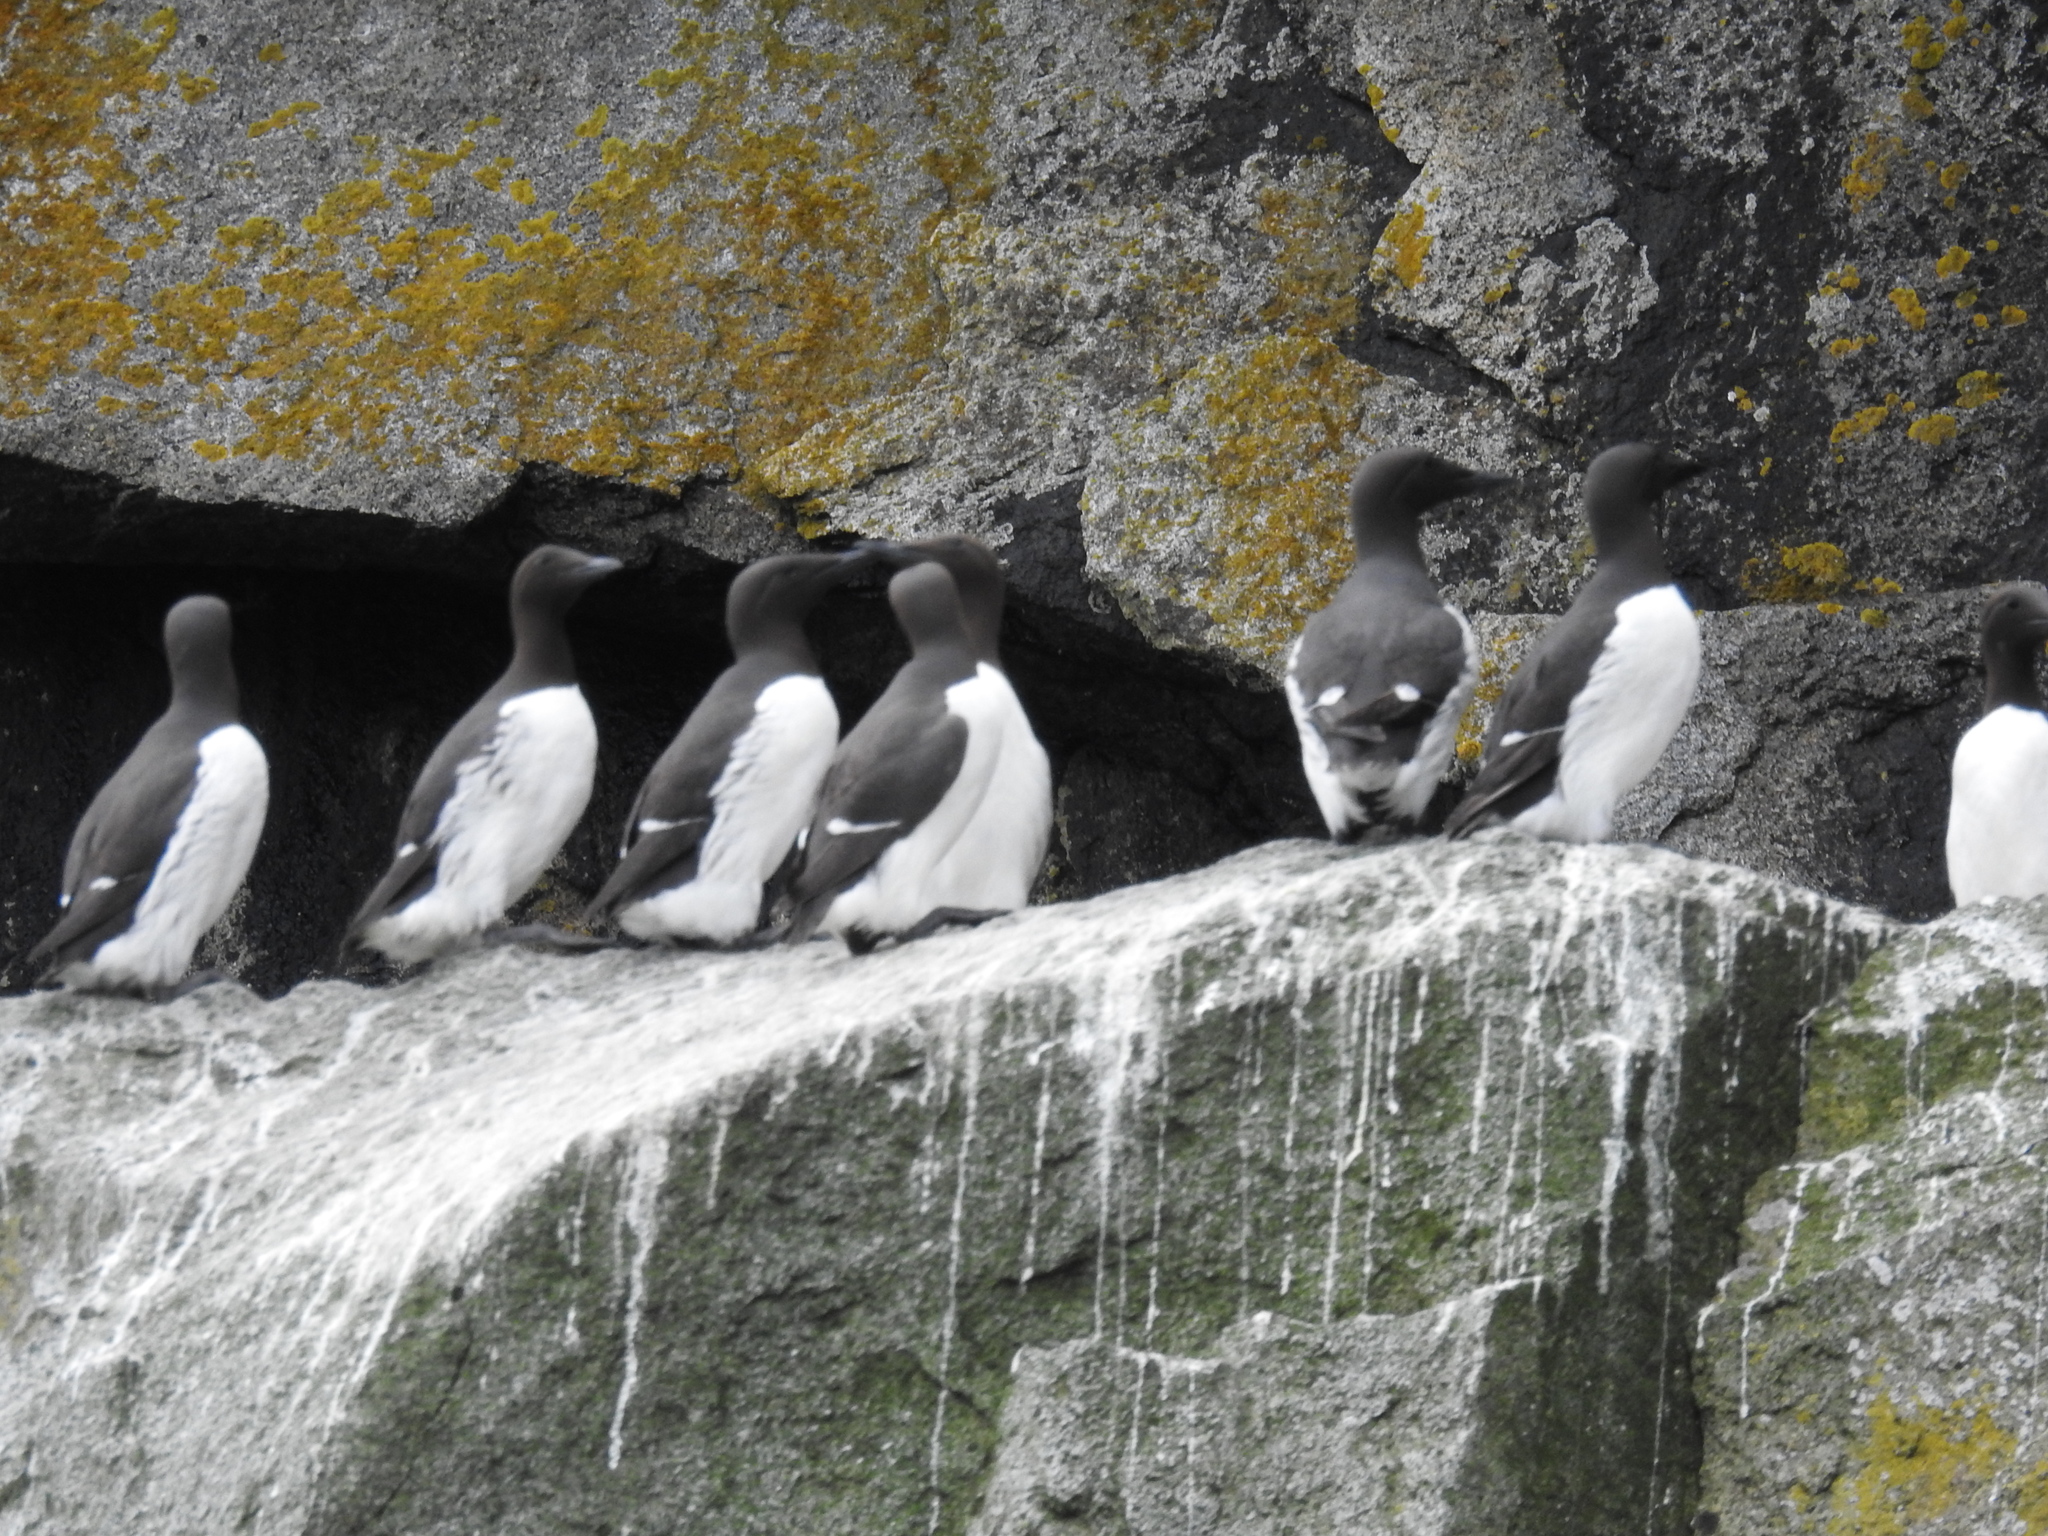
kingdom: Animalia
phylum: Chordata
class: Aves
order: Charadriiformes
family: Alcidae
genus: Uria
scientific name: Uria aalge
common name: Common murre
